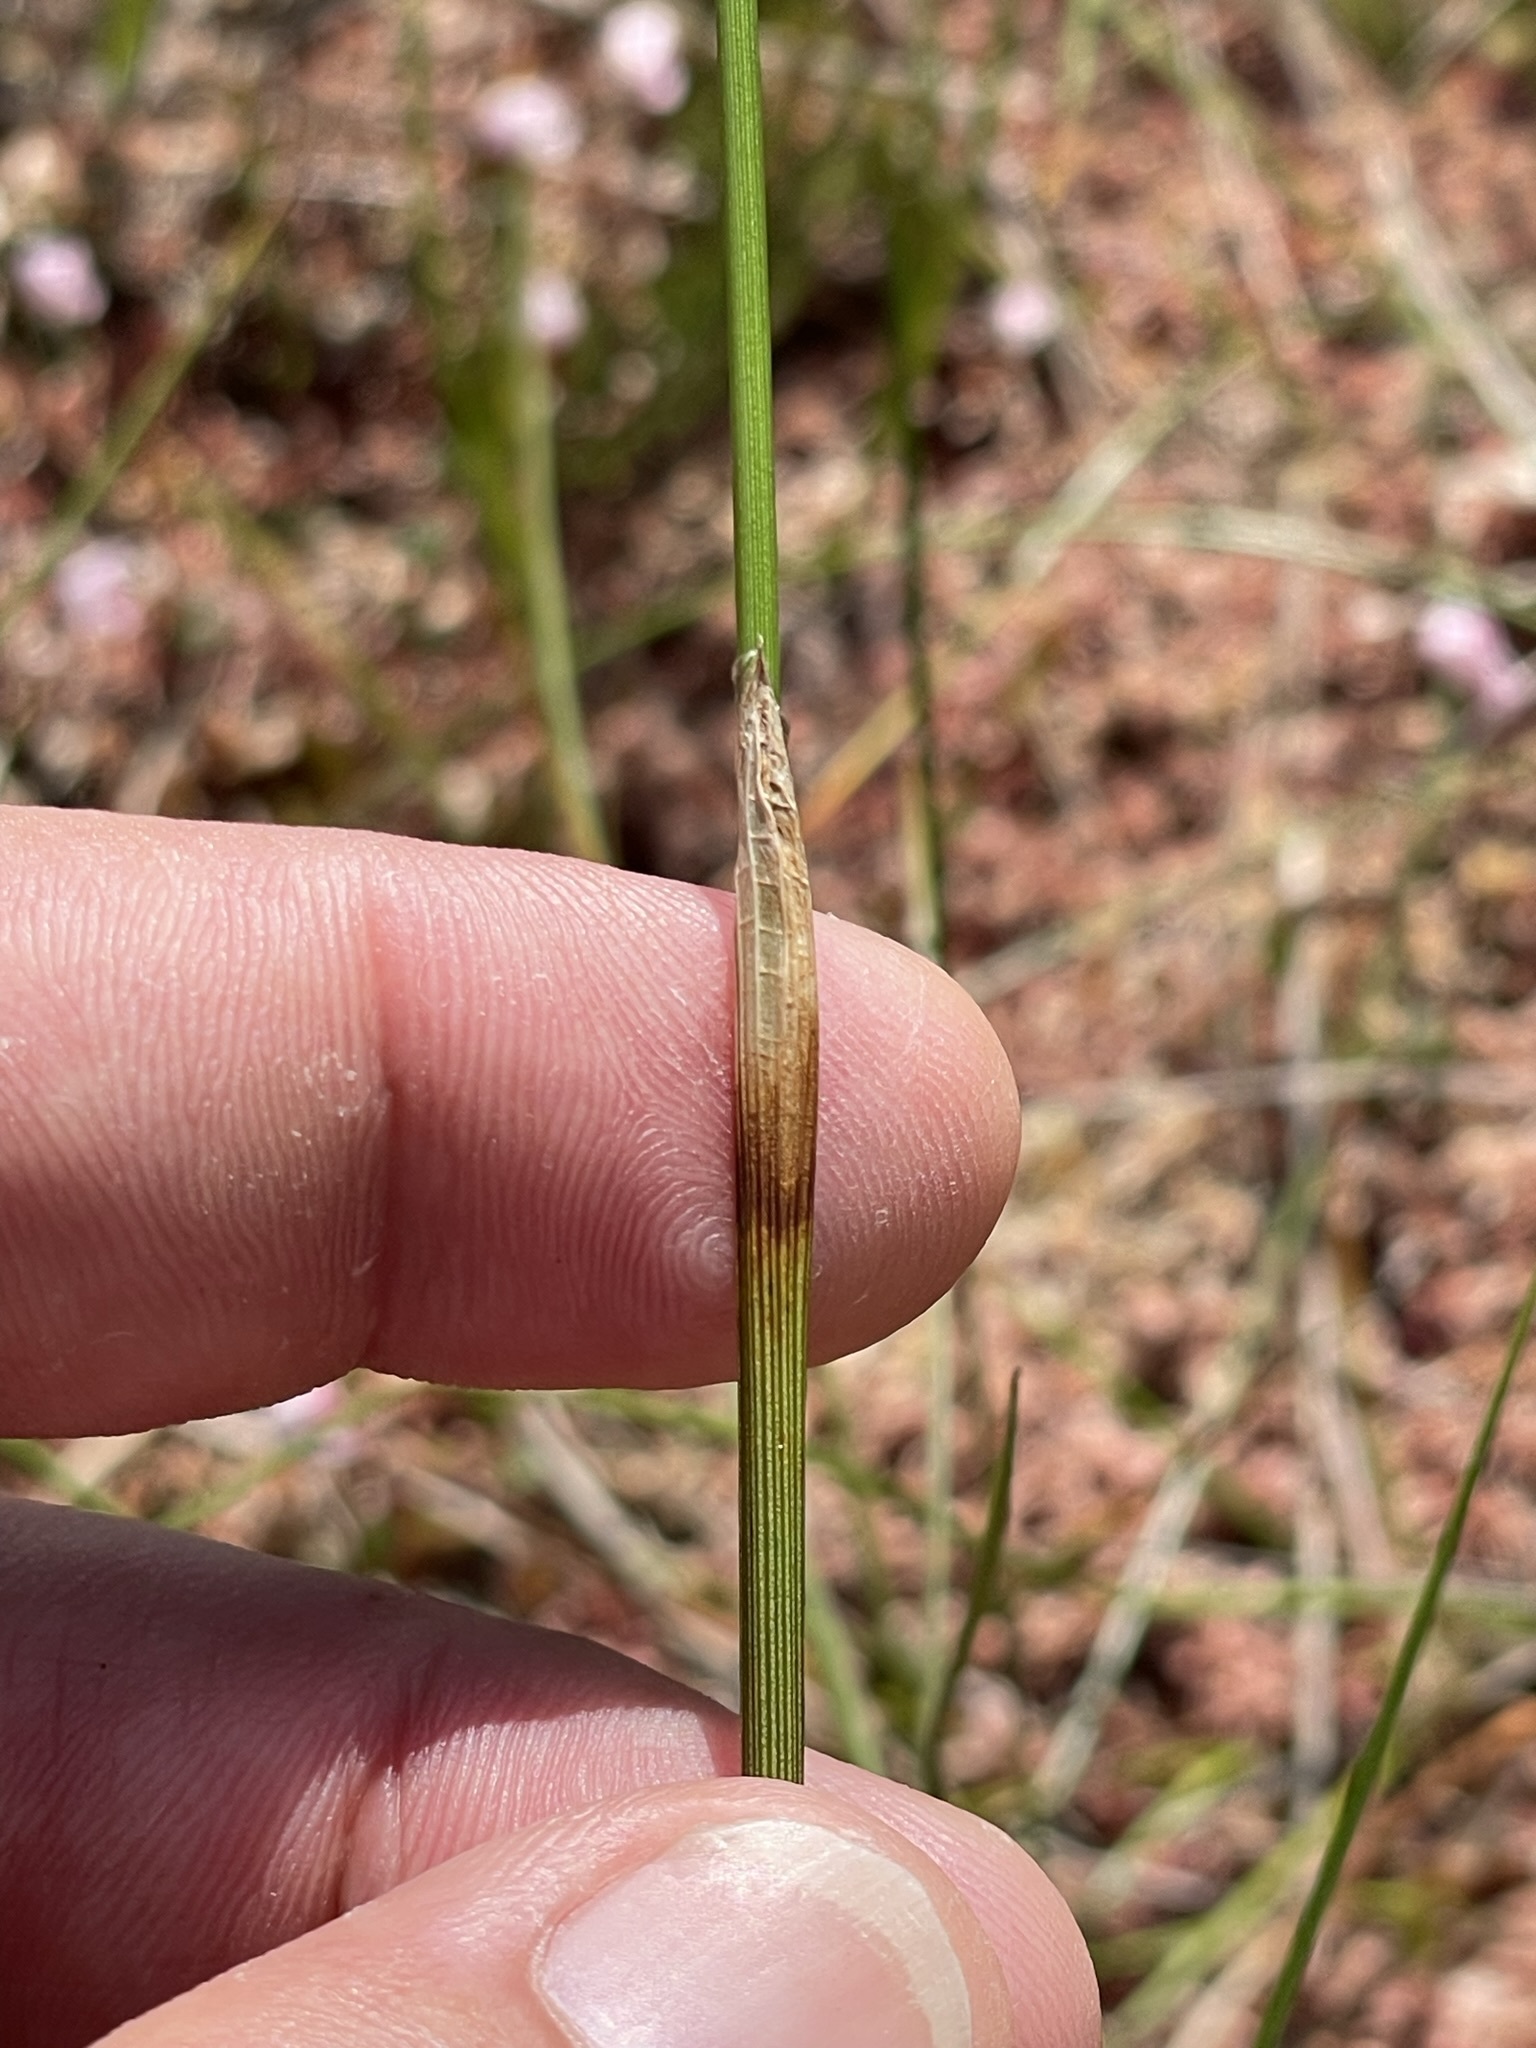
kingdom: Plantae
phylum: Tracheophyta
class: Liliopsida
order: Poales
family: Cyperaceae
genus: Eriophorum
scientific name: Eriophorum vaginatum
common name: Hare's-tail cottongrass
